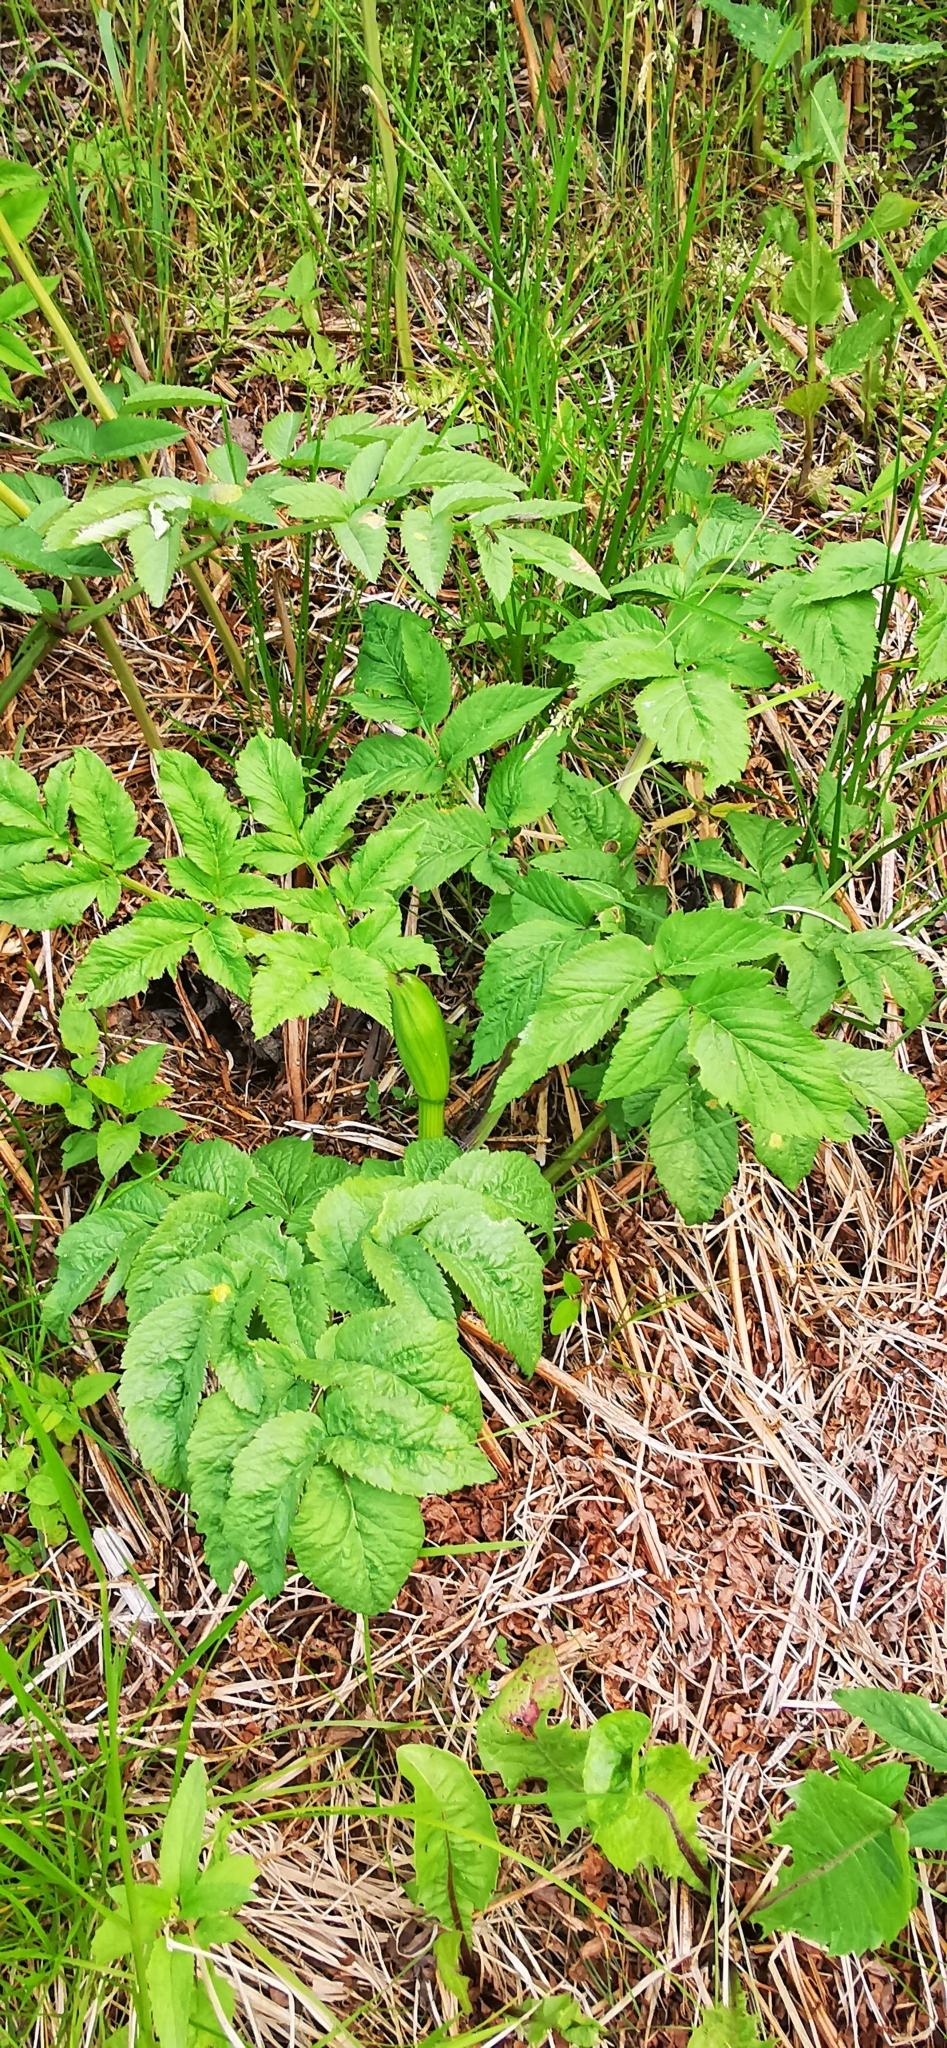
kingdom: Plantae
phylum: Tracheophyta
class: Magnoliopsida
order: Apiales
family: Apiaceae
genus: Angelica
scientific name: Angelica sylvestris
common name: Wild angelica
